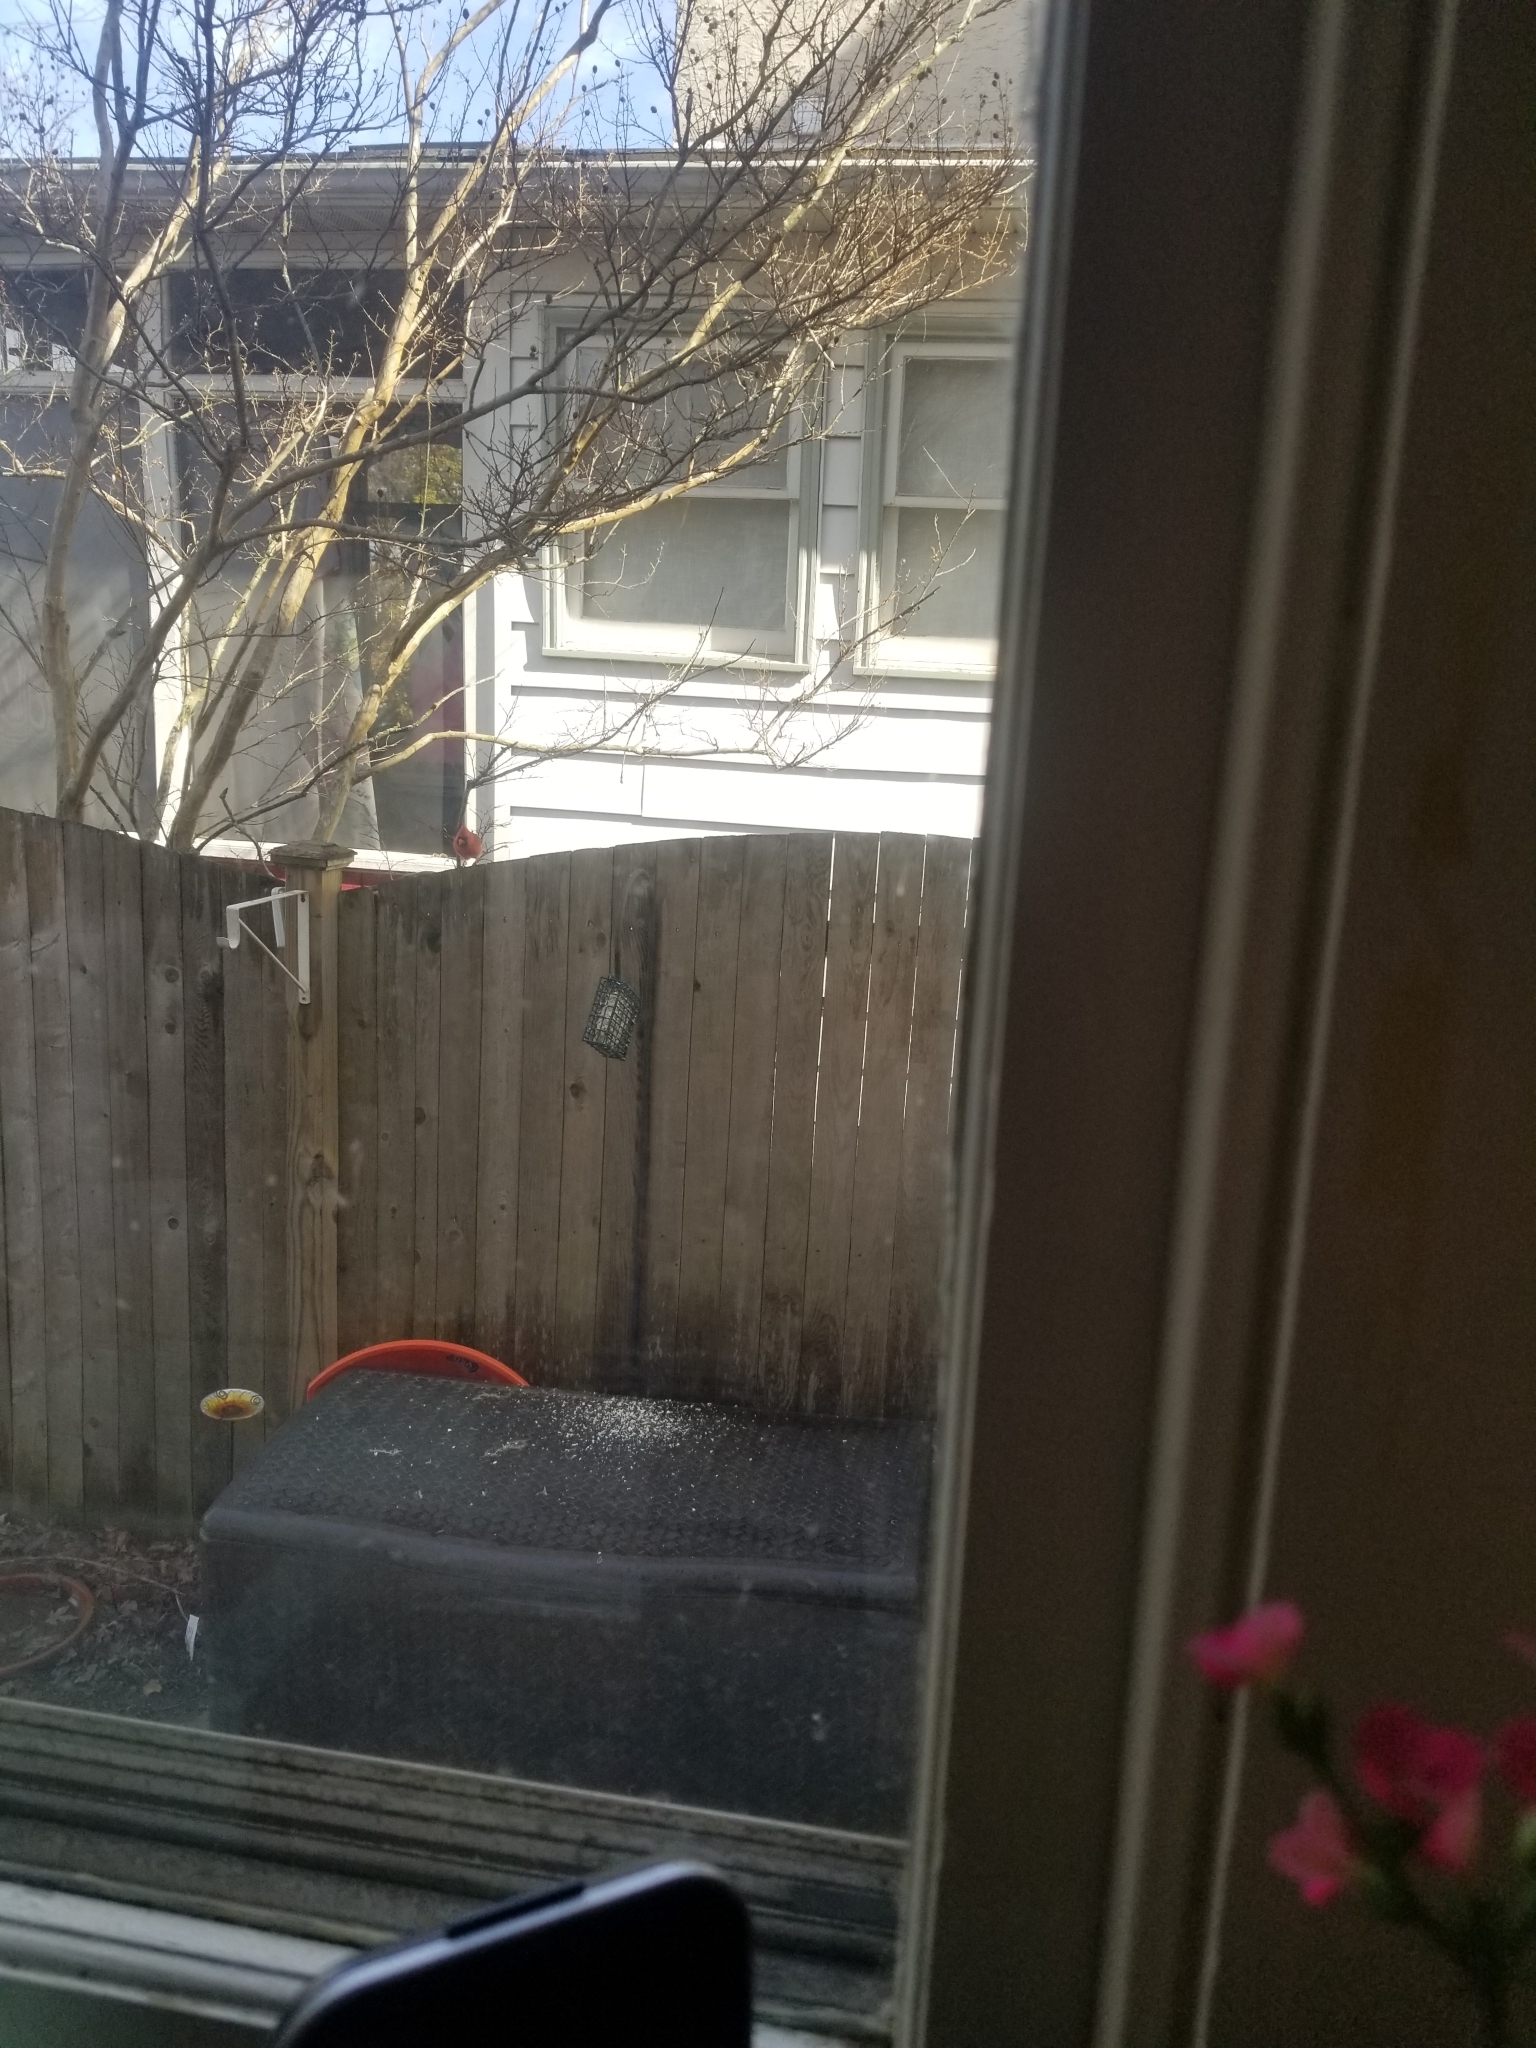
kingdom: Animalia
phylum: Chordata
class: Aves
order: Passeriformes
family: Cardinalidae
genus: Cardinalis
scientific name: Cardinalis cardinalis
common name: Northern cardinal
